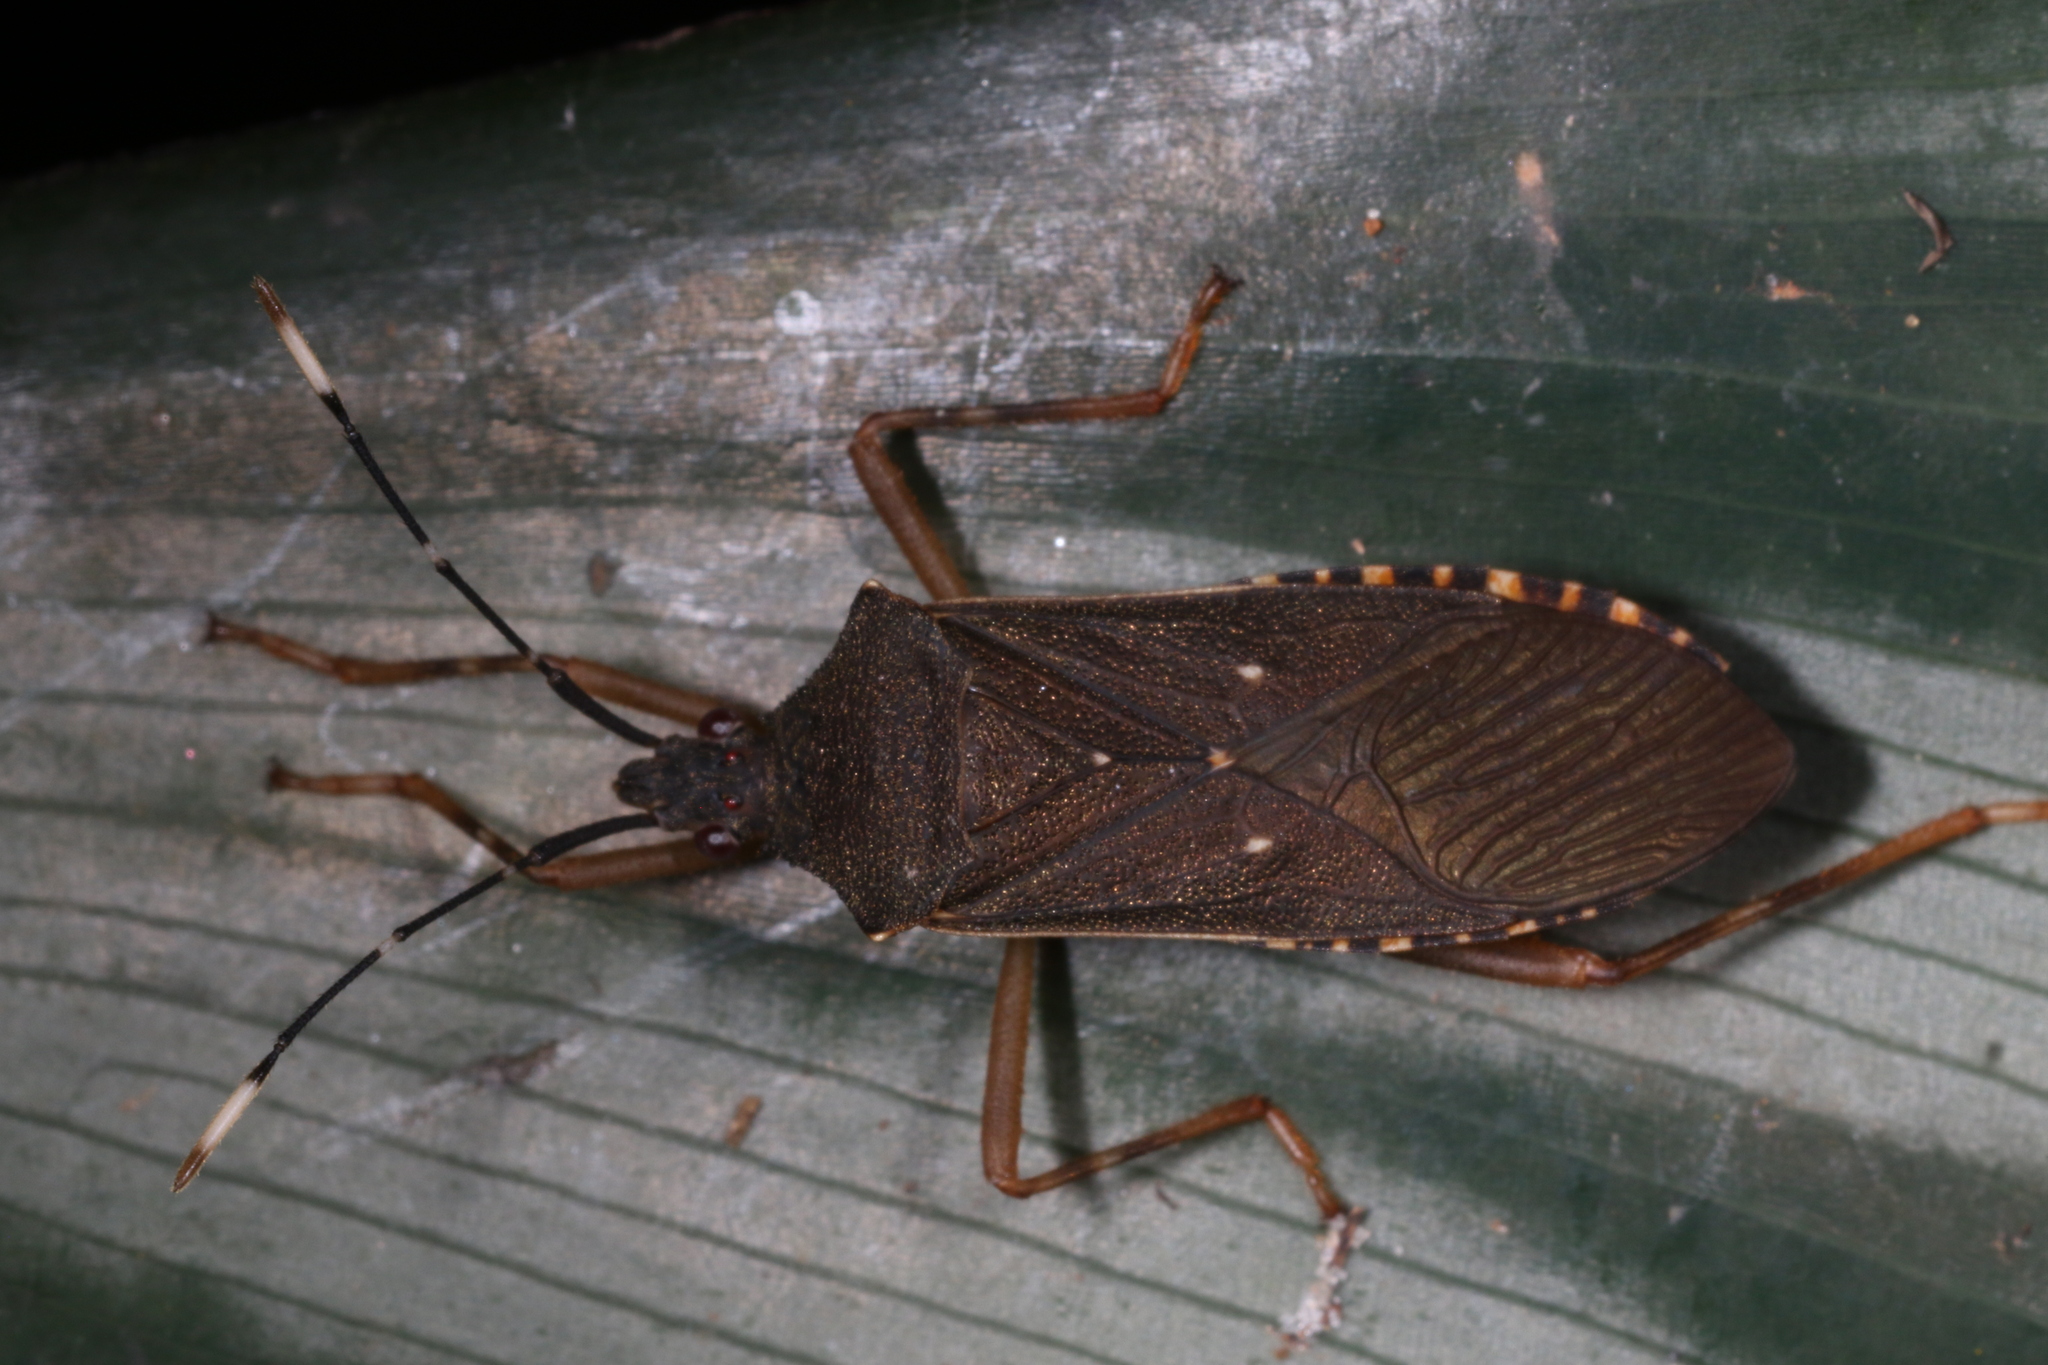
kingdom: Animalia
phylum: Arthropoda
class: Insecta
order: Hemiptera
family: Coreidae
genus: Leptoscelis
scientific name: Leptoscelis elongator
